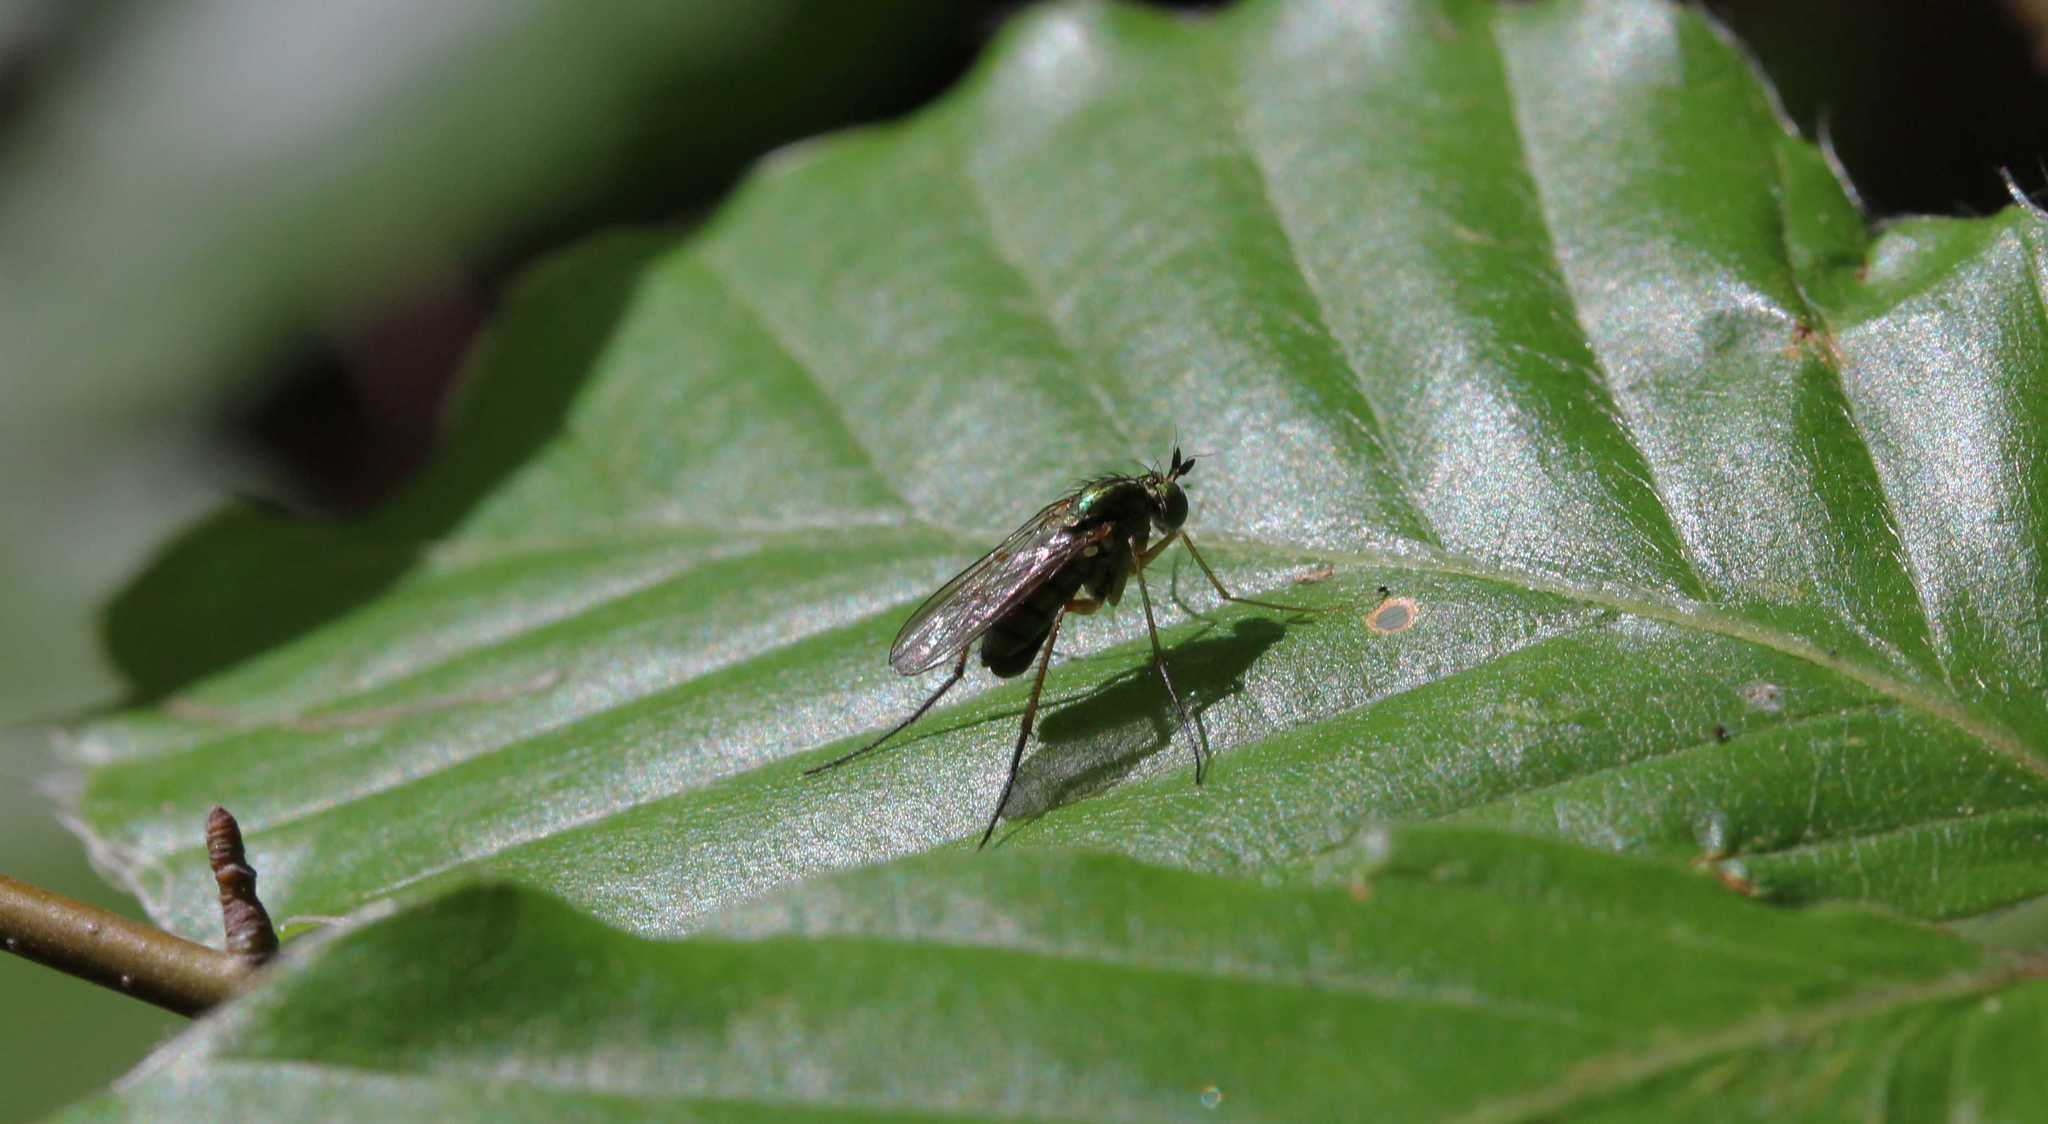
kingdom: Animalia
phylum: Arthropoda
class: Insecta
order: Diptera
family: Dolichopodidae
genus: Dolichopus
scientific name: Dolichopus nigricornis
